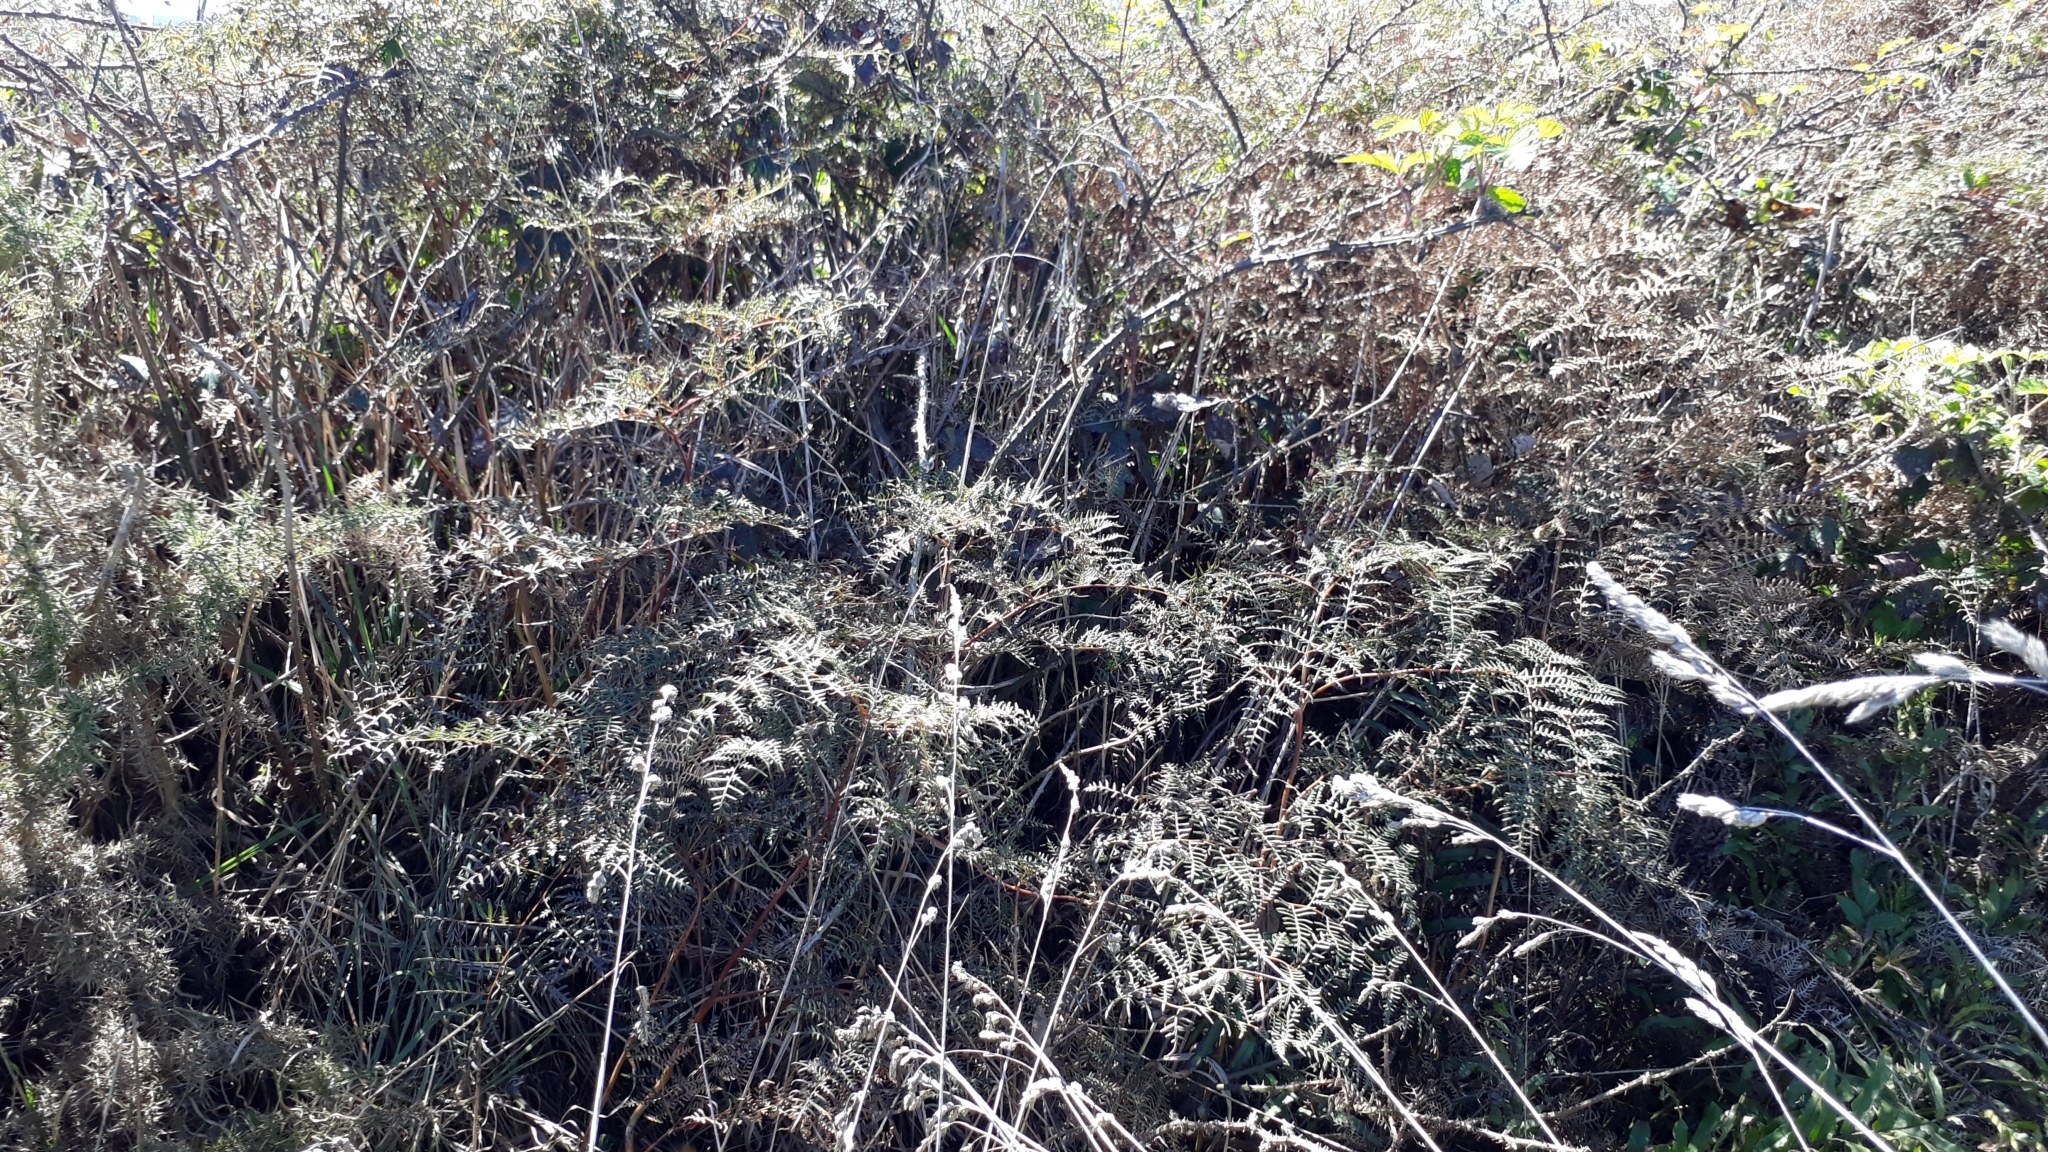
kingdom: Plantae
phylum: Tracheophyta
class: Polypodiopsida
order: Polypodiales
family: Dennstaedtiaceae
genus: Pteridium
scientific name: Pteridium esculentum
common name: Bracken fern
